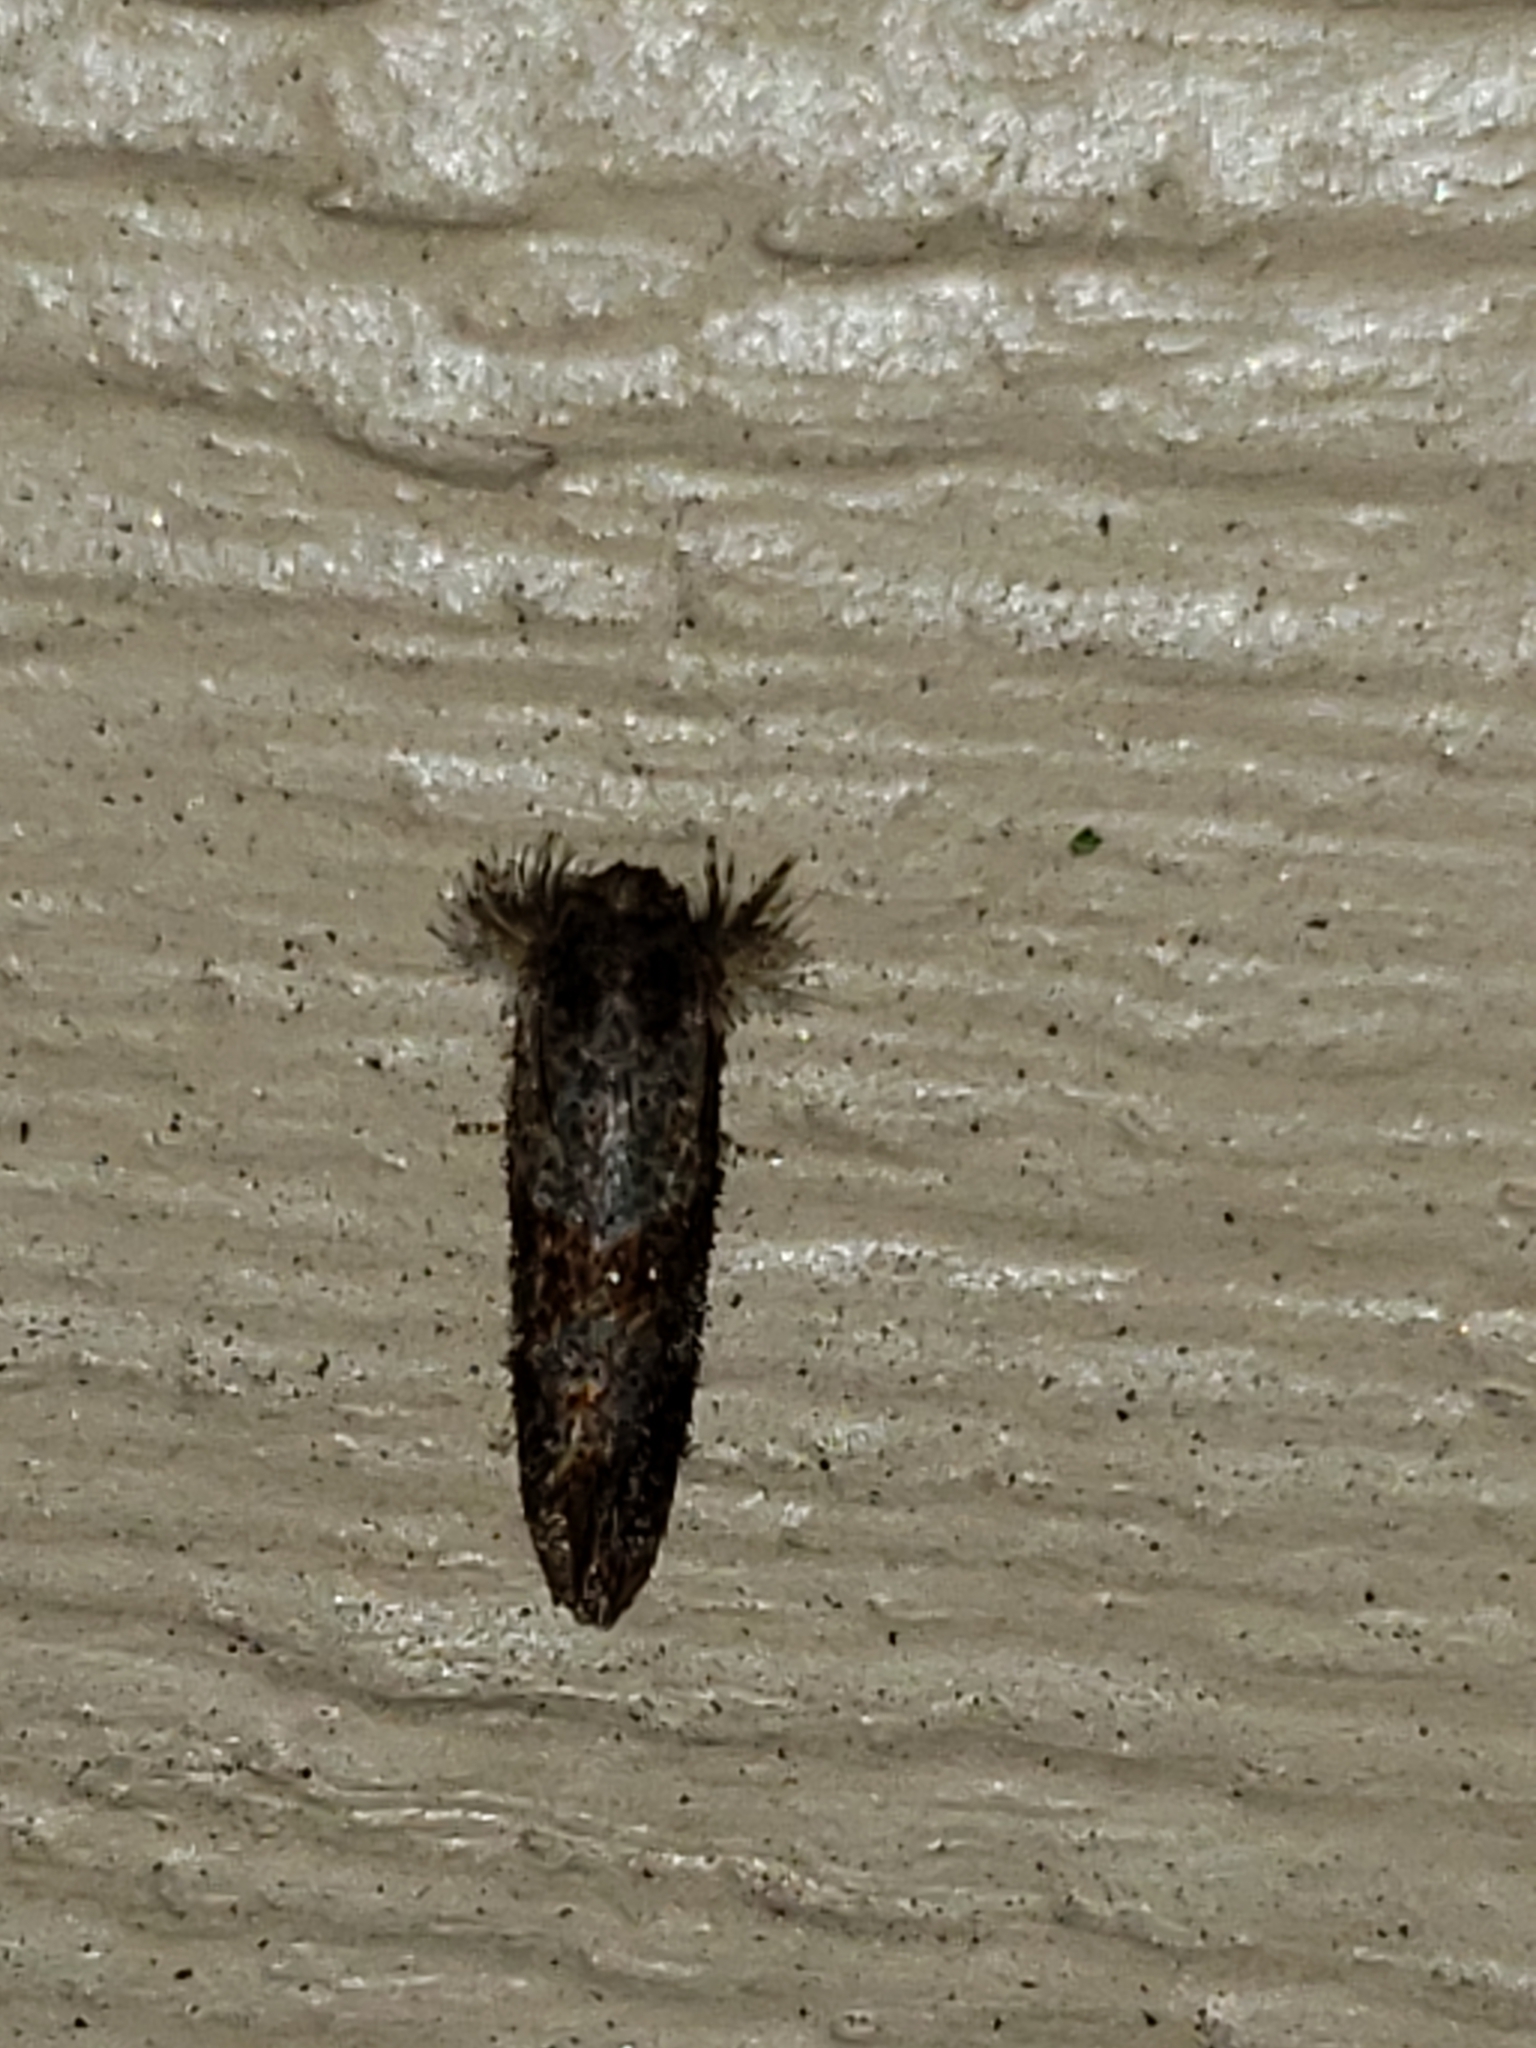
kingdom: Animalia
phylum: Arthropoda
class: Insecta
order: Lepidoptera
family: Tineidae
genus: Acrolophus
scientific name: Acrolophus panamae
